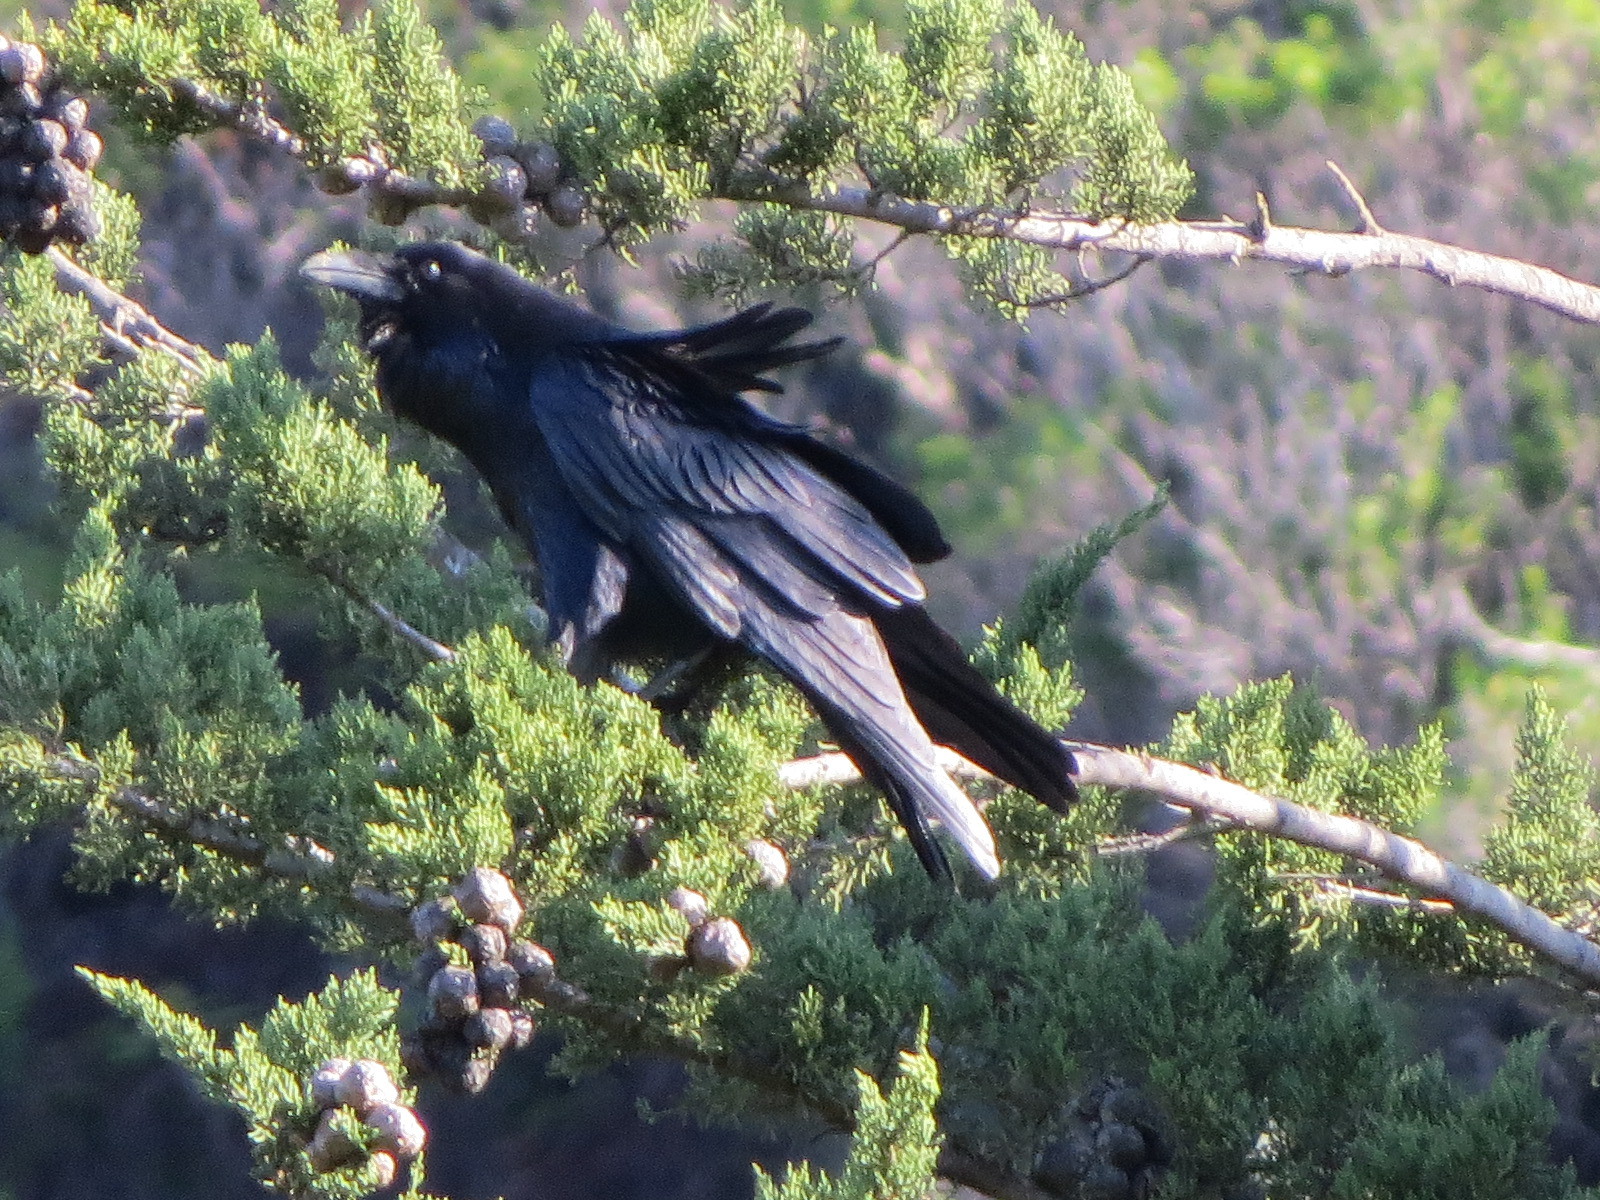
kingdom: Animalia
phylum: Chordata
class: Aves
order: Passeriformes
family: Corvidae
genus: Corvus
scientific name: Corvus corax
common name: Common raven
